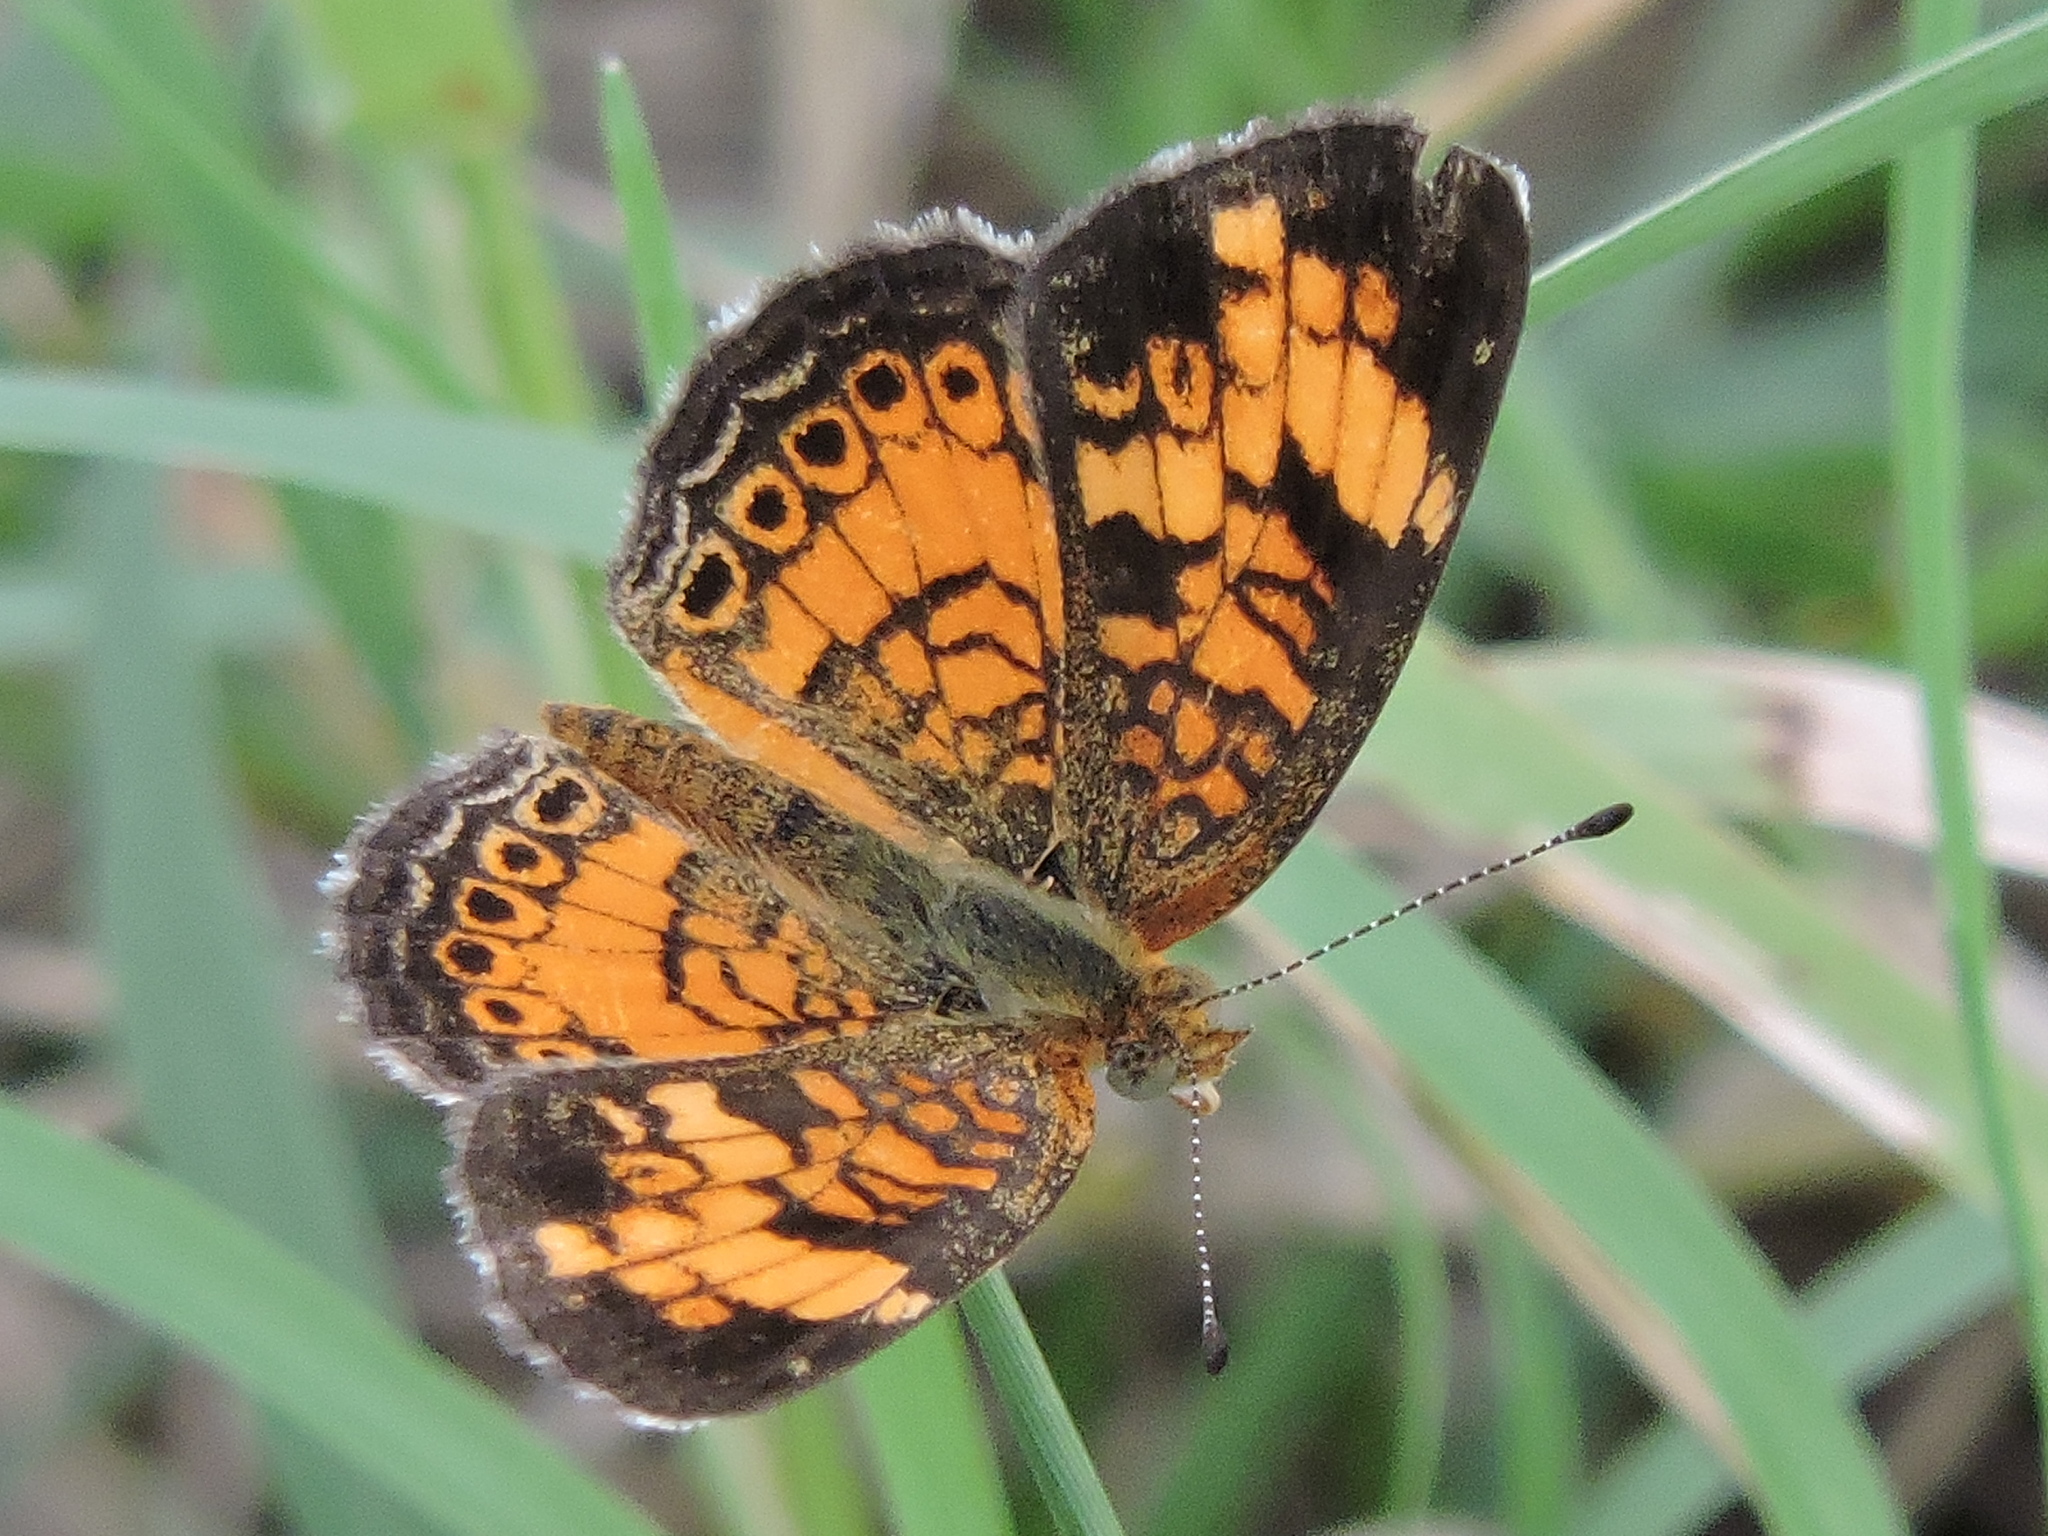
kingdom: Animalia
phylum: Arthropoda
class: Insecta
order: Lepidoptera
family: Nymphalidae
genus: Phyciodes
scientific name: Phyciodes tharos
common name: Pearl crescent
